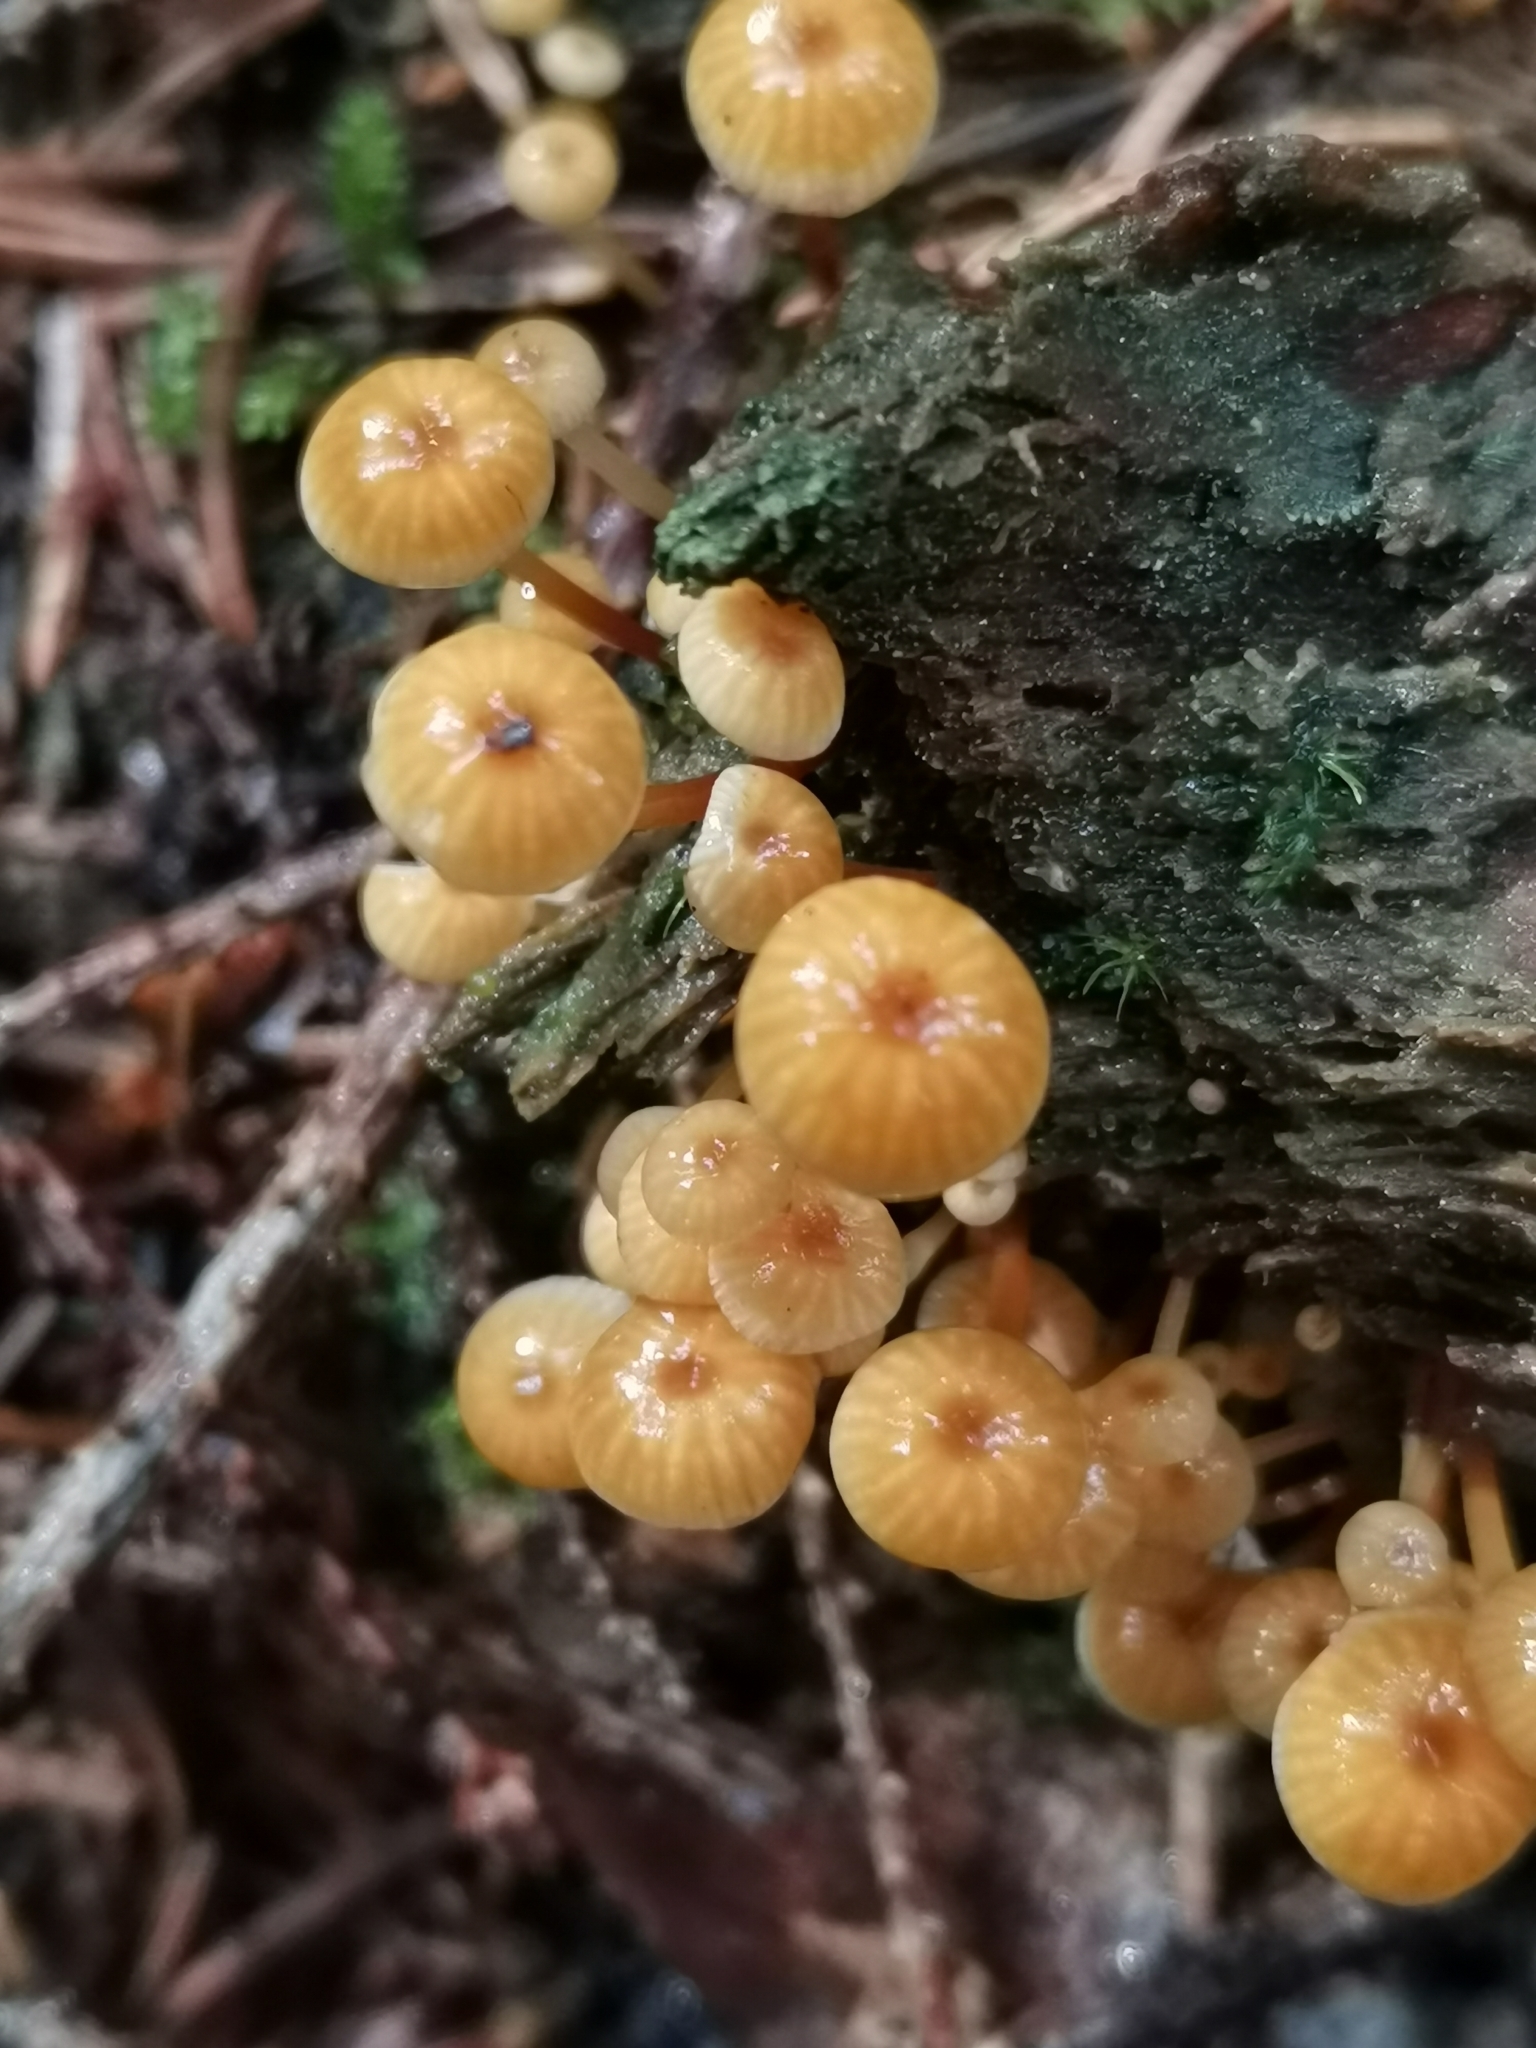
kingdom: Fungi
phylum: Basidiomycota
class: Agaricomycetes
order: Agaricales
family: Mycenaceae
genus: Xeromphalina
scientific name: Xeromphalina campanella
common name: Pinewood gingertail
